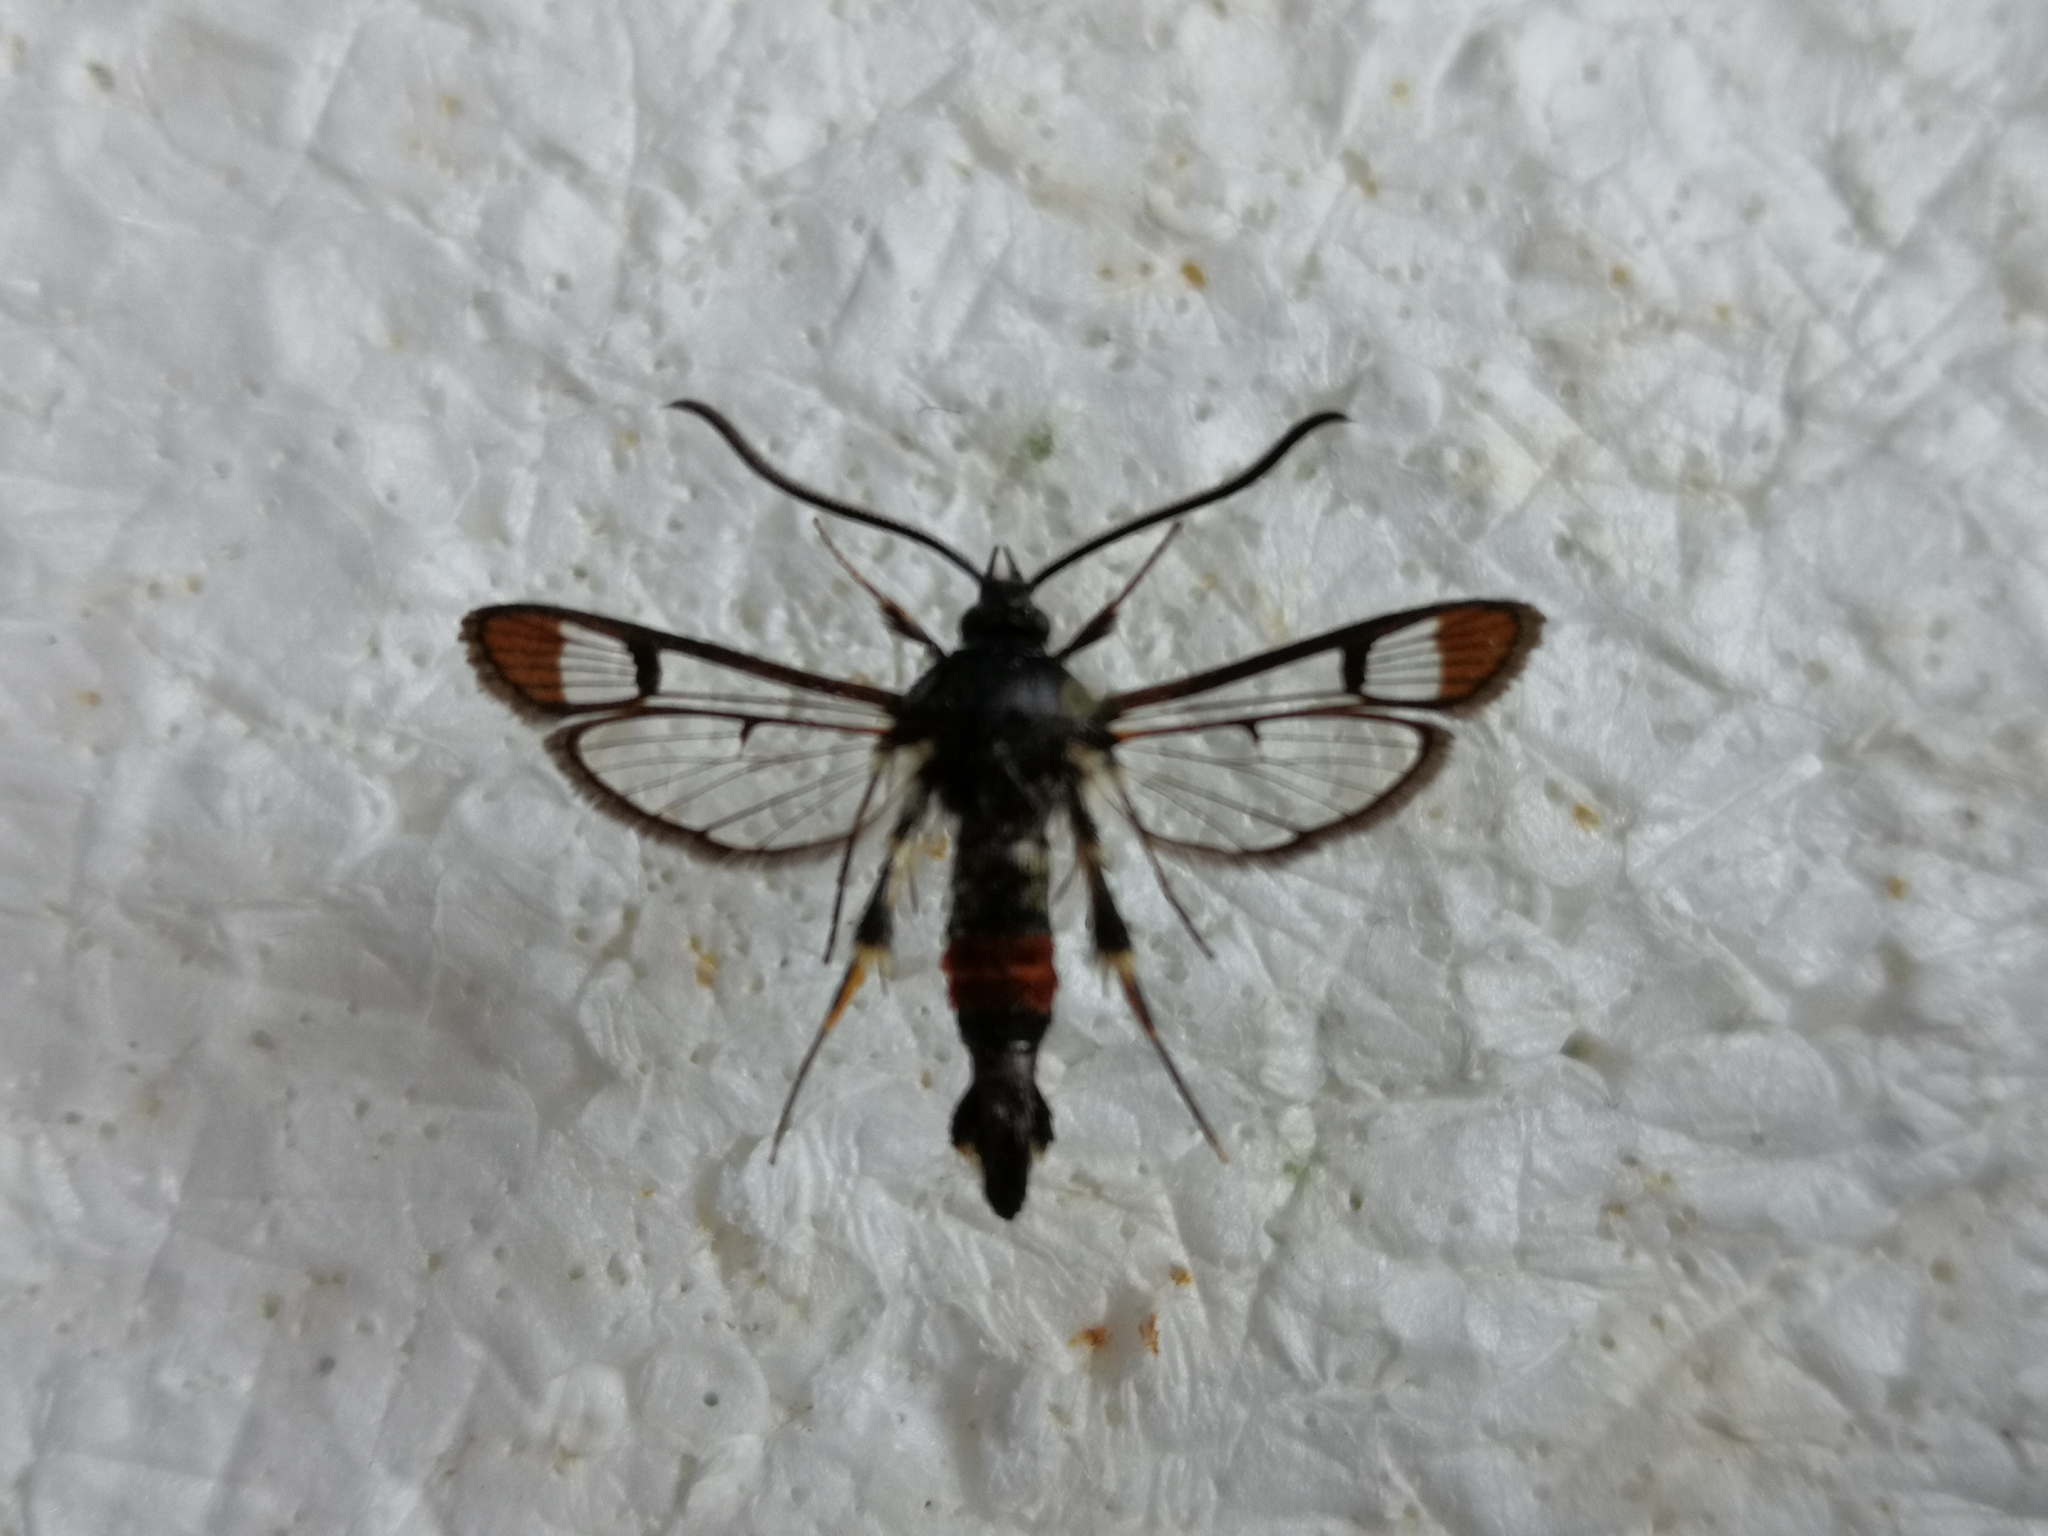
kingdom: Animalia
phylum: Arthropoda
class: Insecta
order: Lepidoptera
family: Sesiidae
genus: Synanthedon
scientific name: Synanthedon formicaeformis
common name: Red-tipped clearwing
